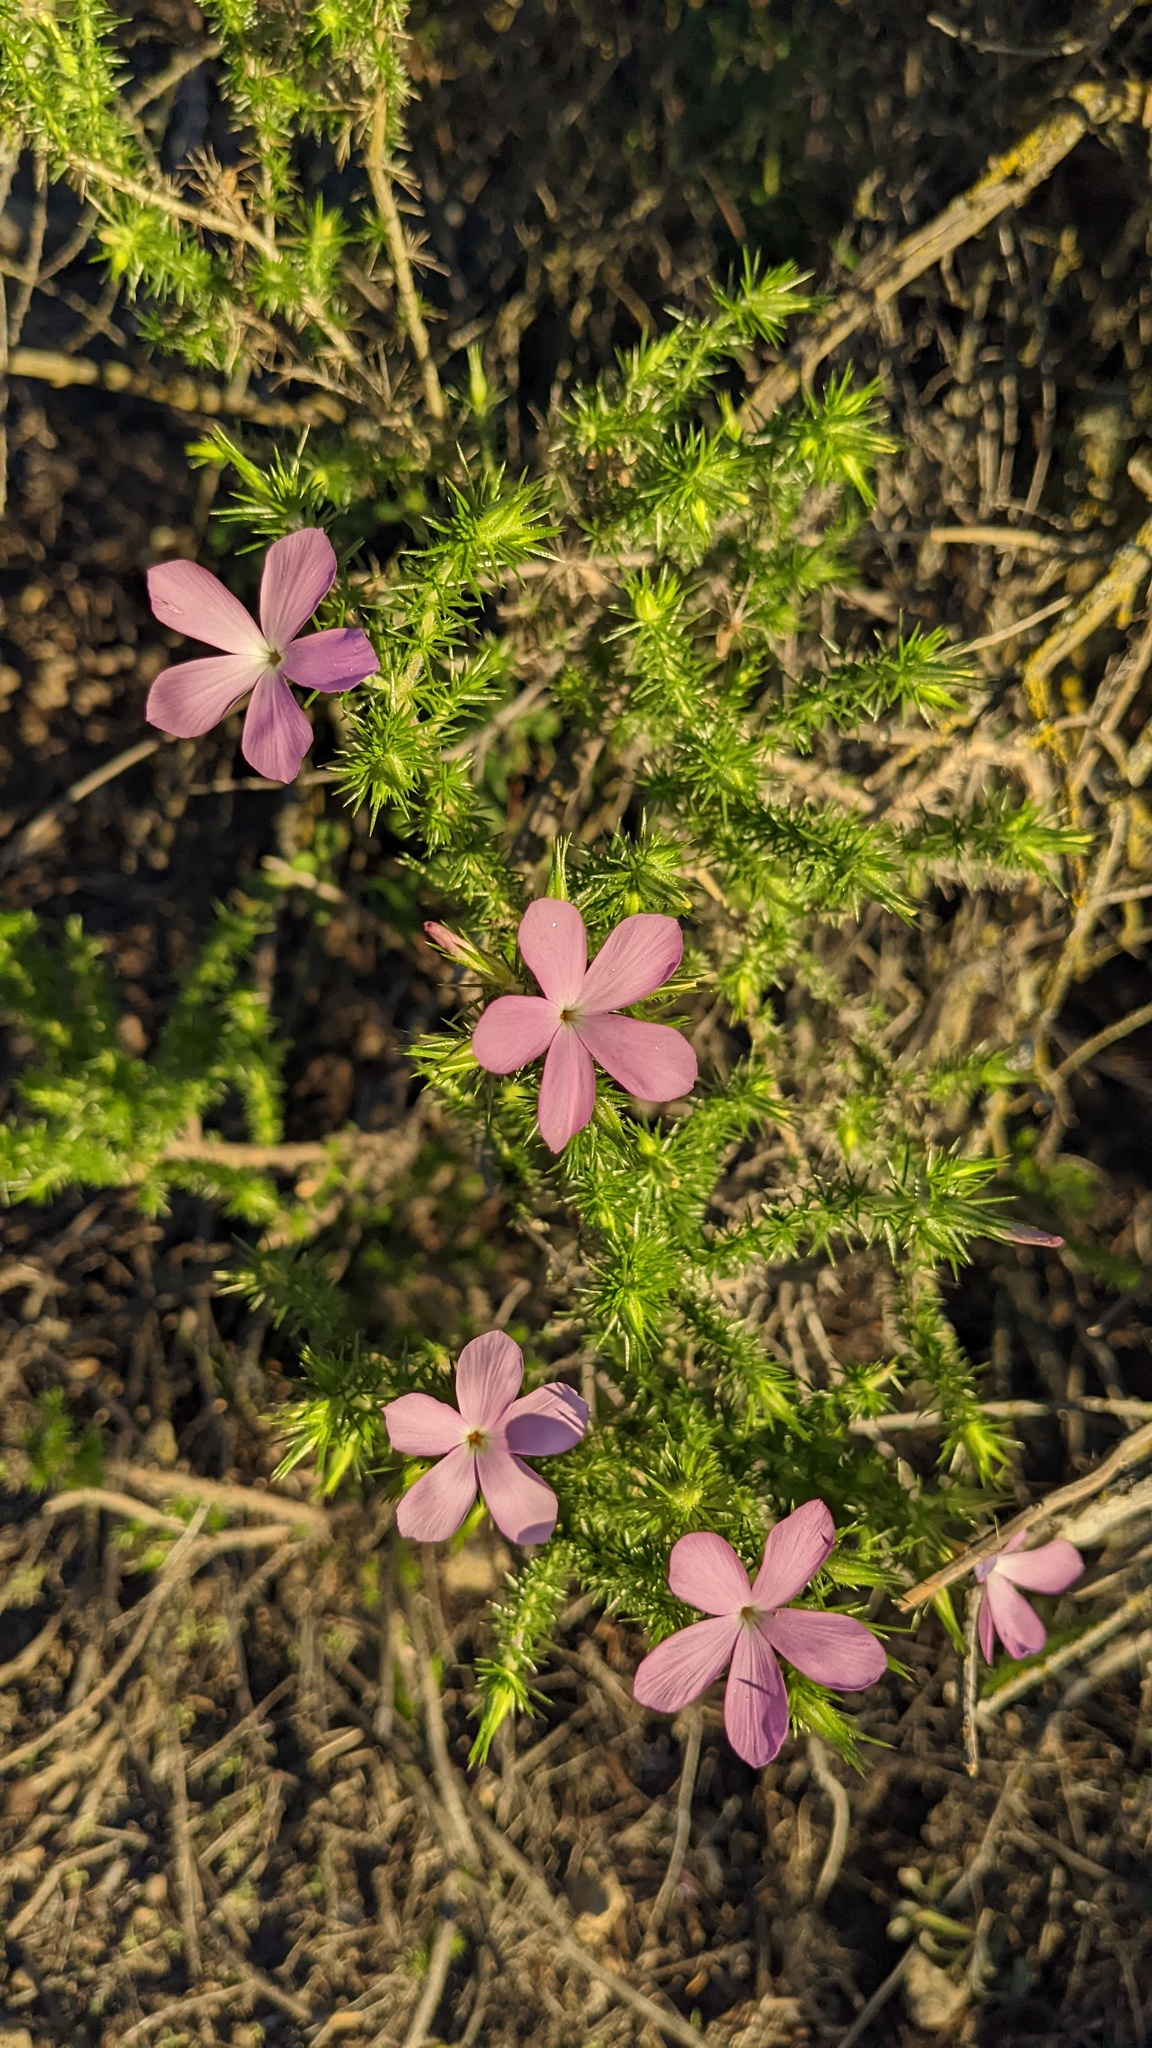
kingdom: Plantae
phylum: Tracheophyta
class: Magnoliopsida
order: Ericales
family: Polemoniaceae
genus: Linanthus
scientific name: Linanthus californicus
